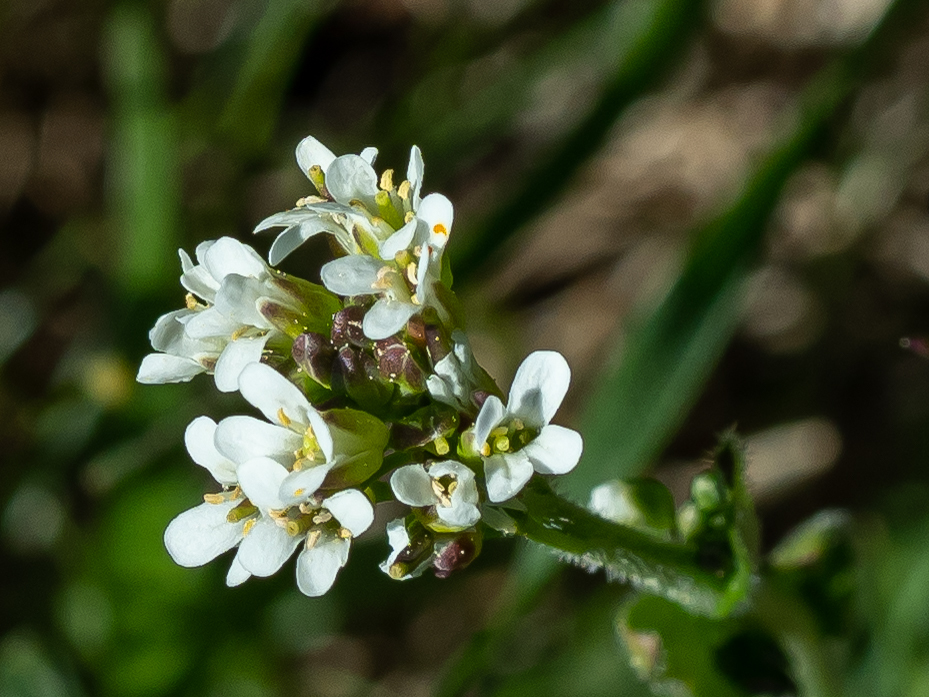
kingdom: Plantae
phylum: Tracheophyta
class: Magnoliopsida
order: Brassicales
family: Brassicaceae
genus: Cardamine
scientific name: Cardamine hirsuta
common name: Hairy bittercress
